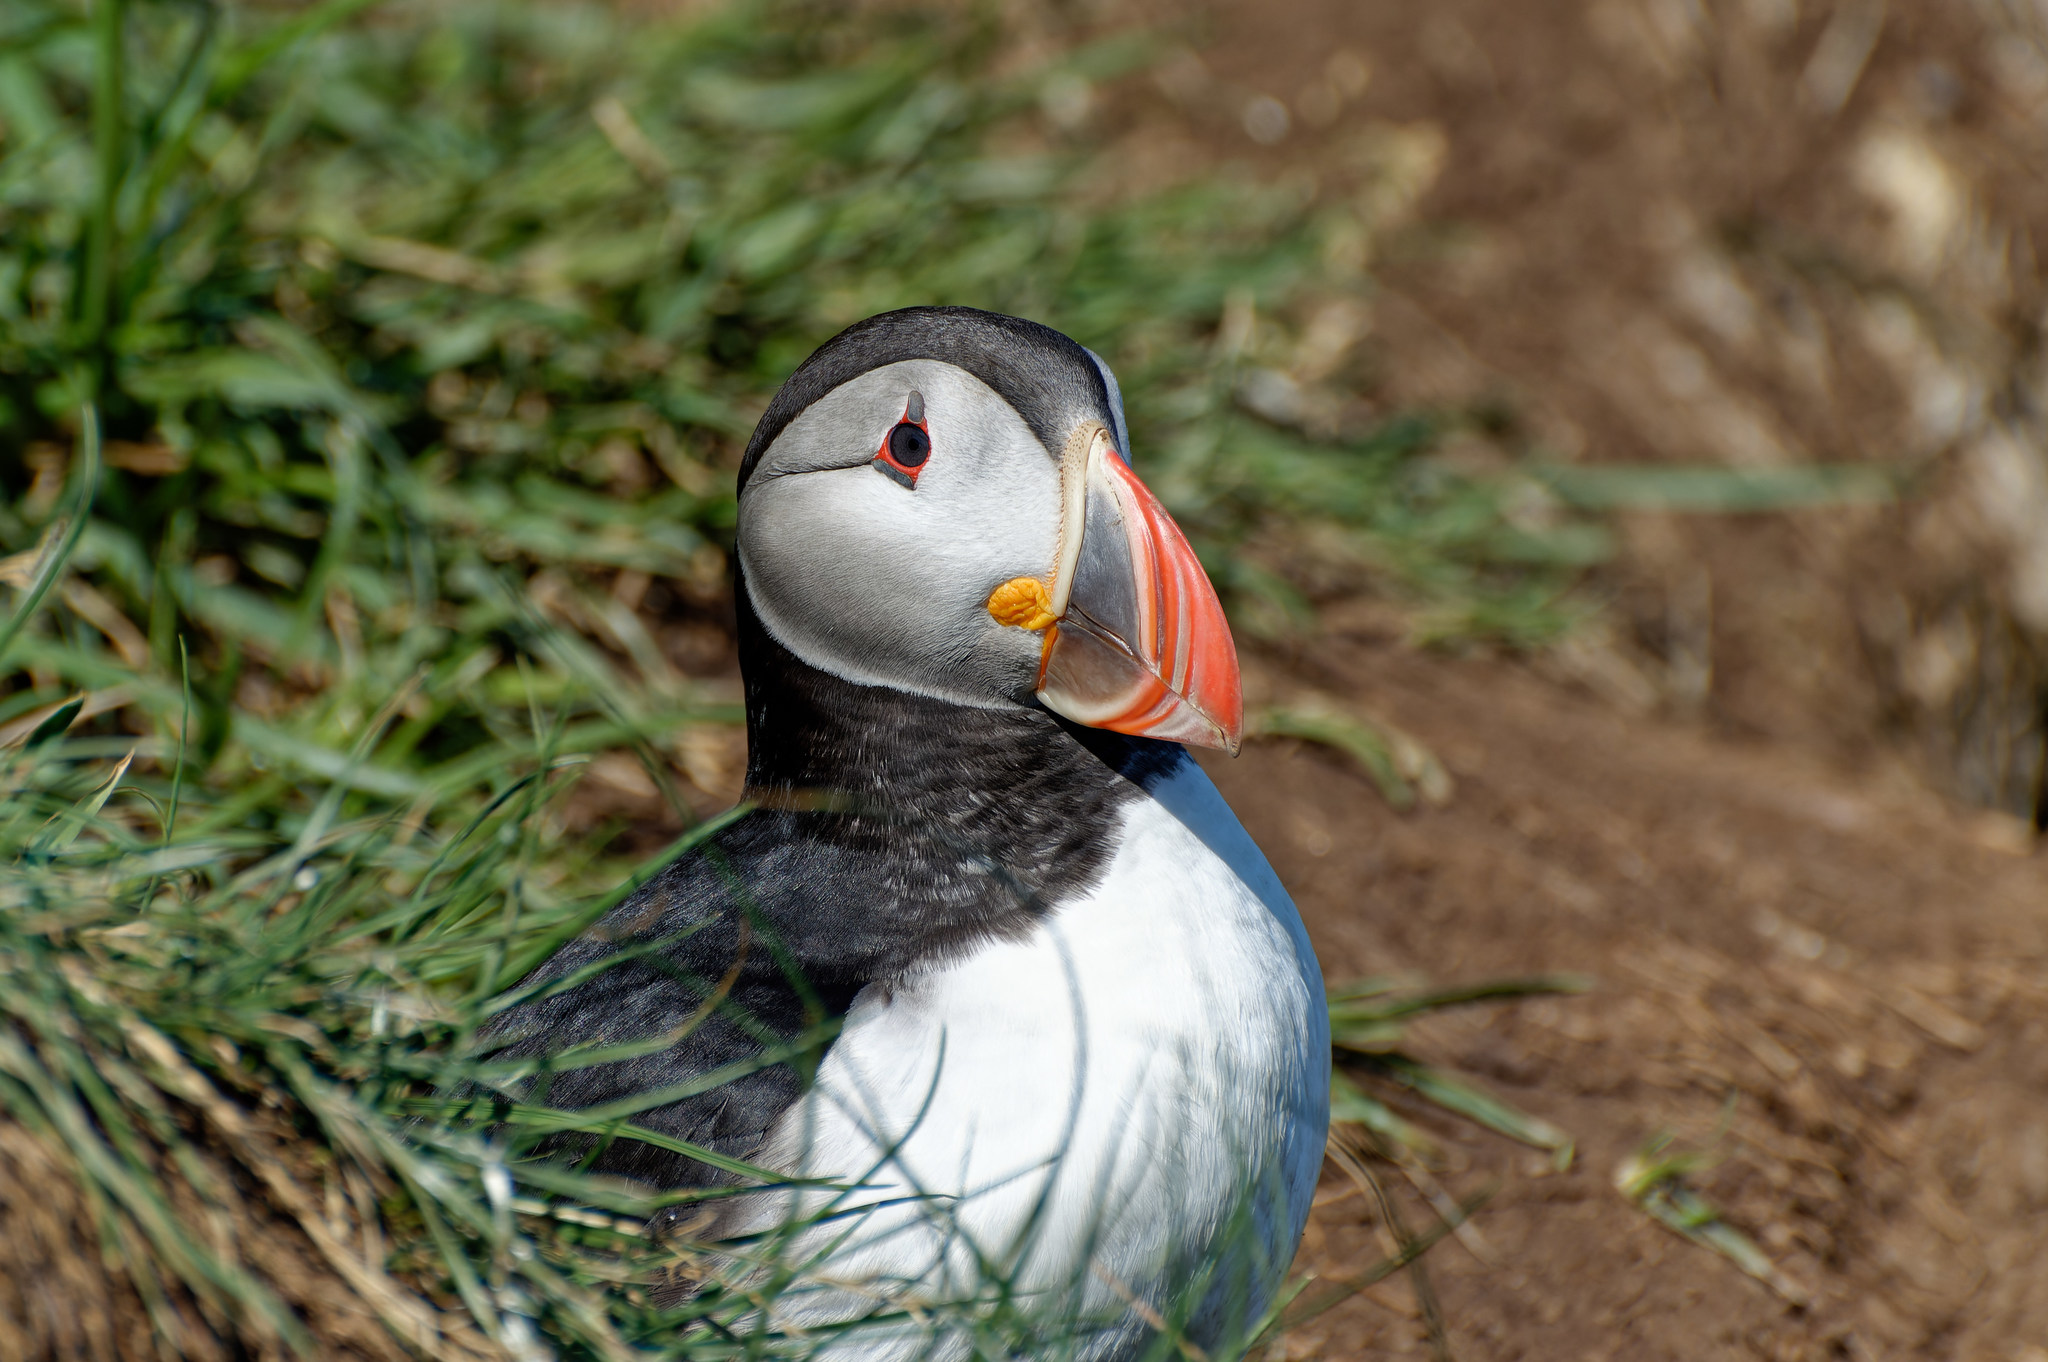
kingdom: Animalia
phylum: Chordata
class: Aves
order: Charadriiformes
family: Alcidae
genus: Fratercula
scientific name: Fratercula arctica
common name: Atlantic puffin
